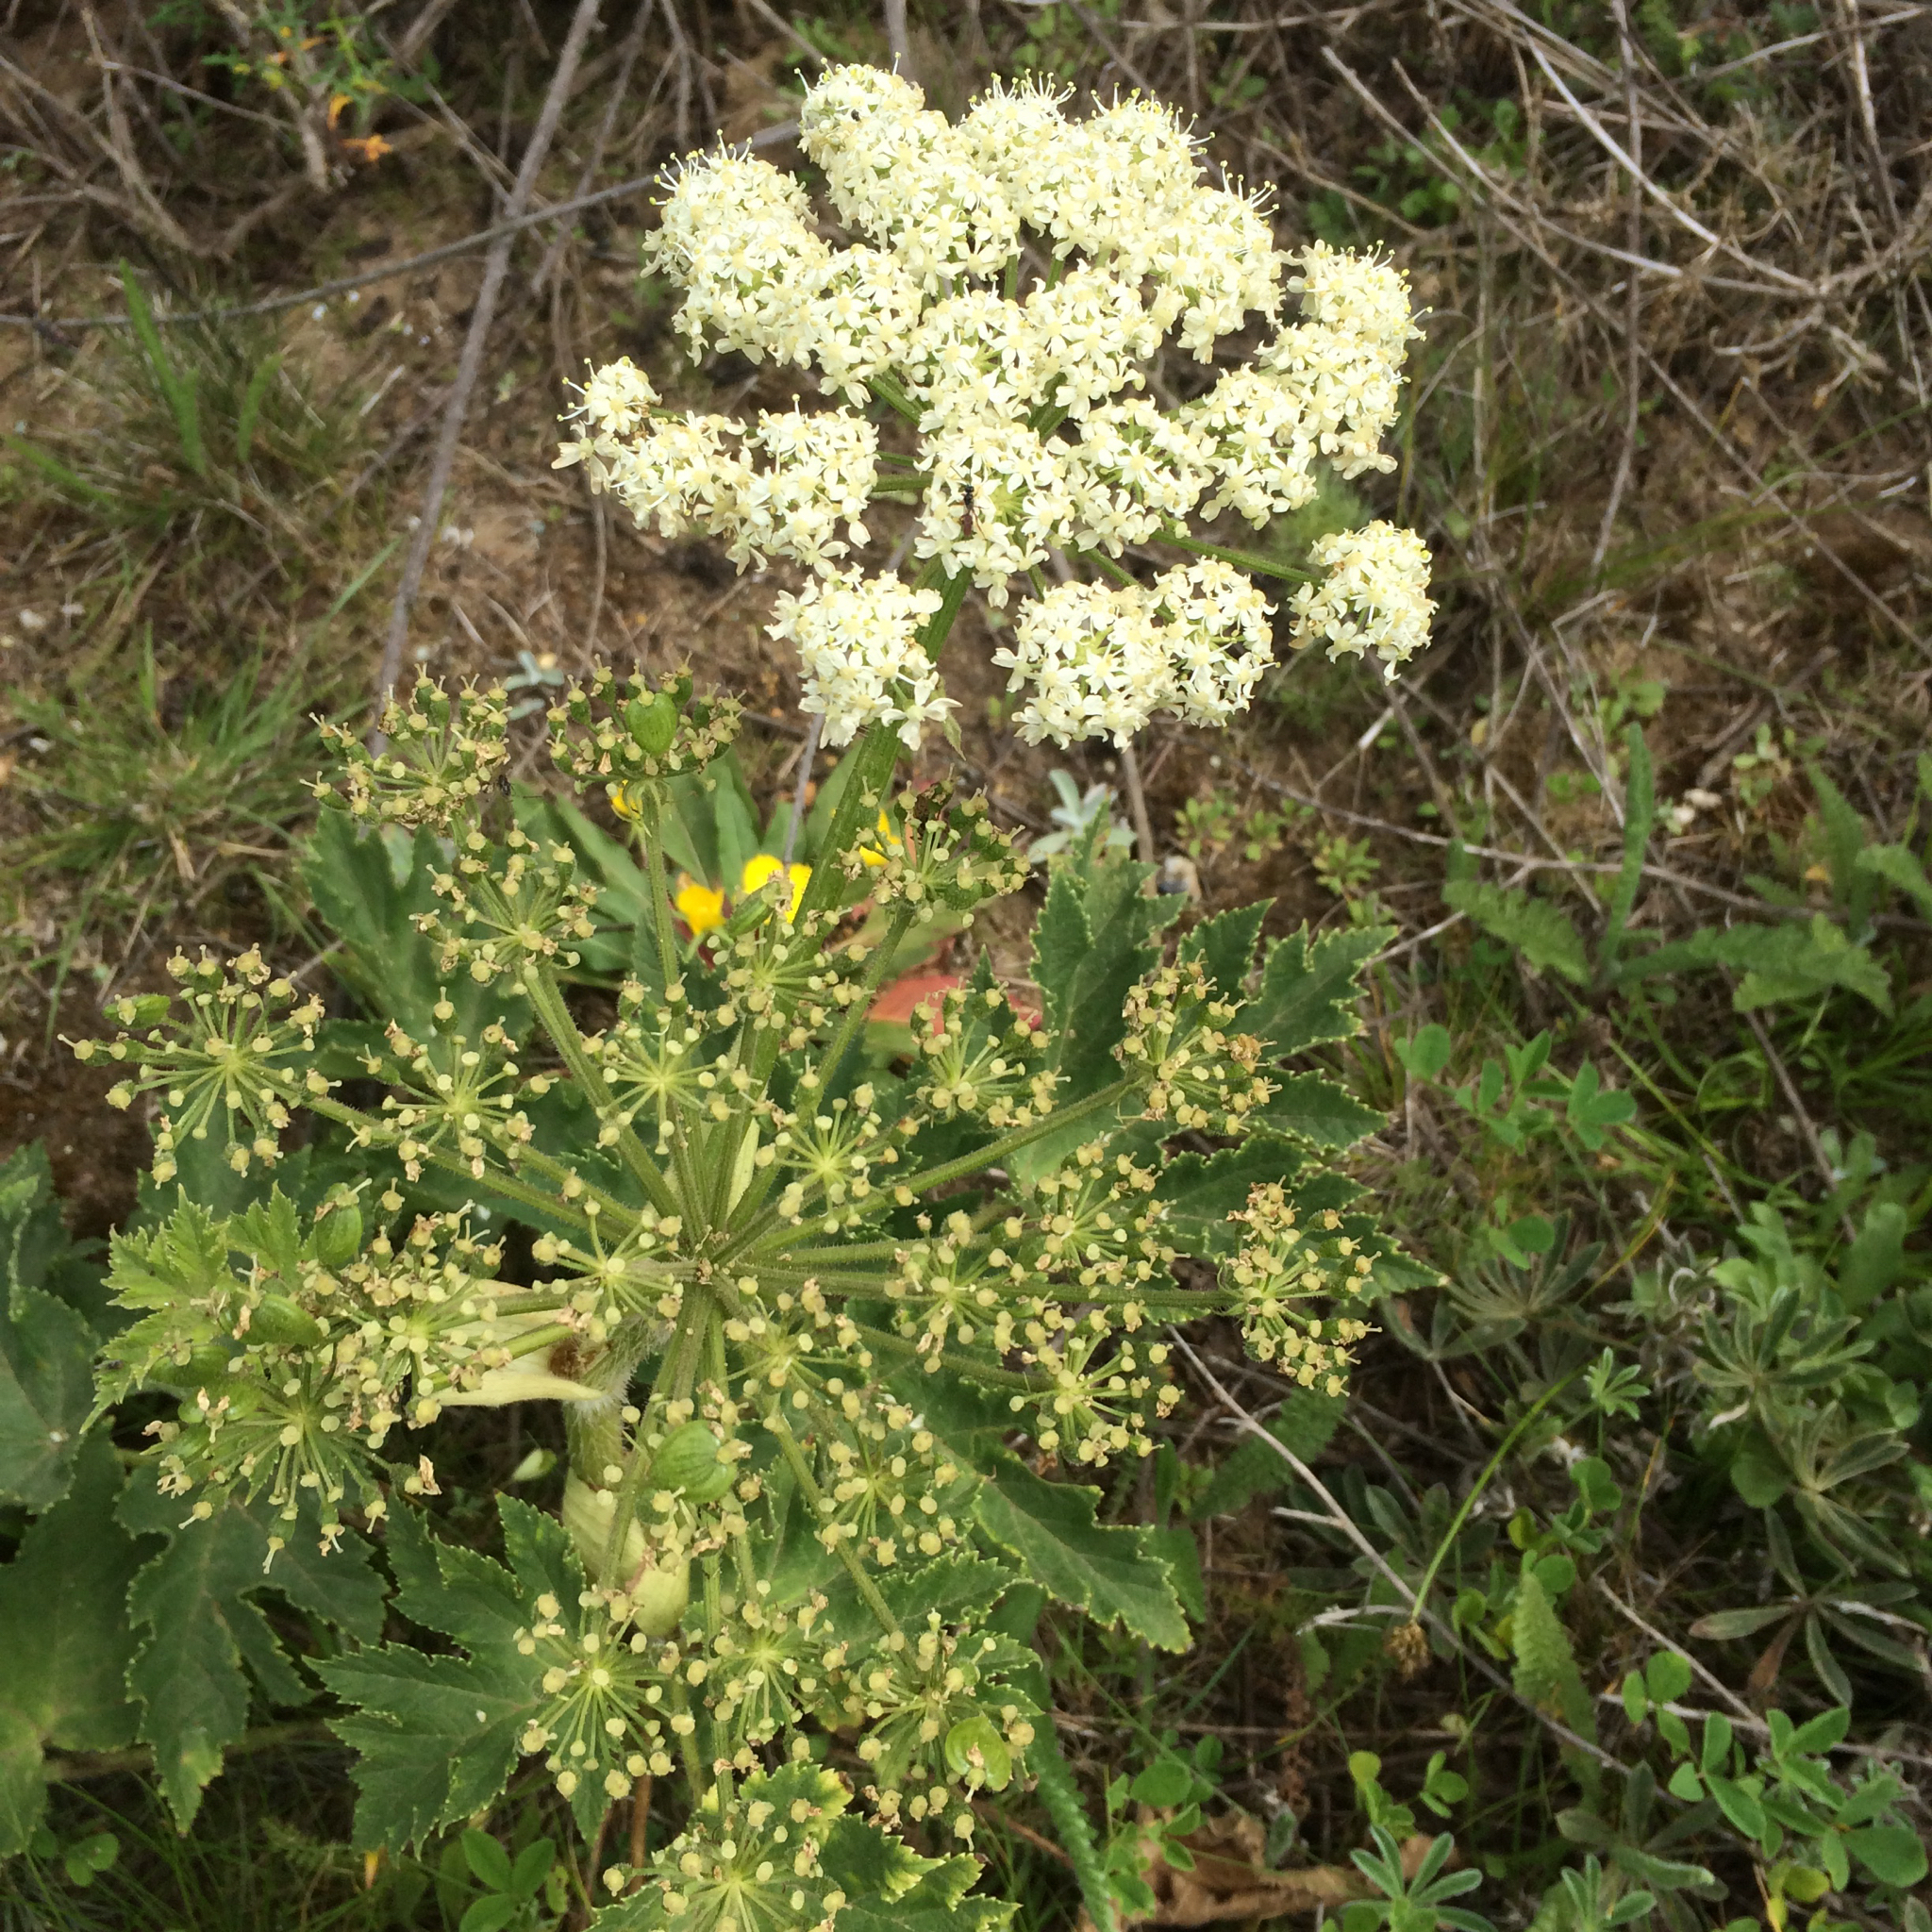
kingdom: Plantae
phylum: Tracheophyta
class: Magnoliopsida
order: Apiales
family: Apiaceae
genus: Heracleum
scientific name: Heracleum maximum
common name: American cow parsnip
